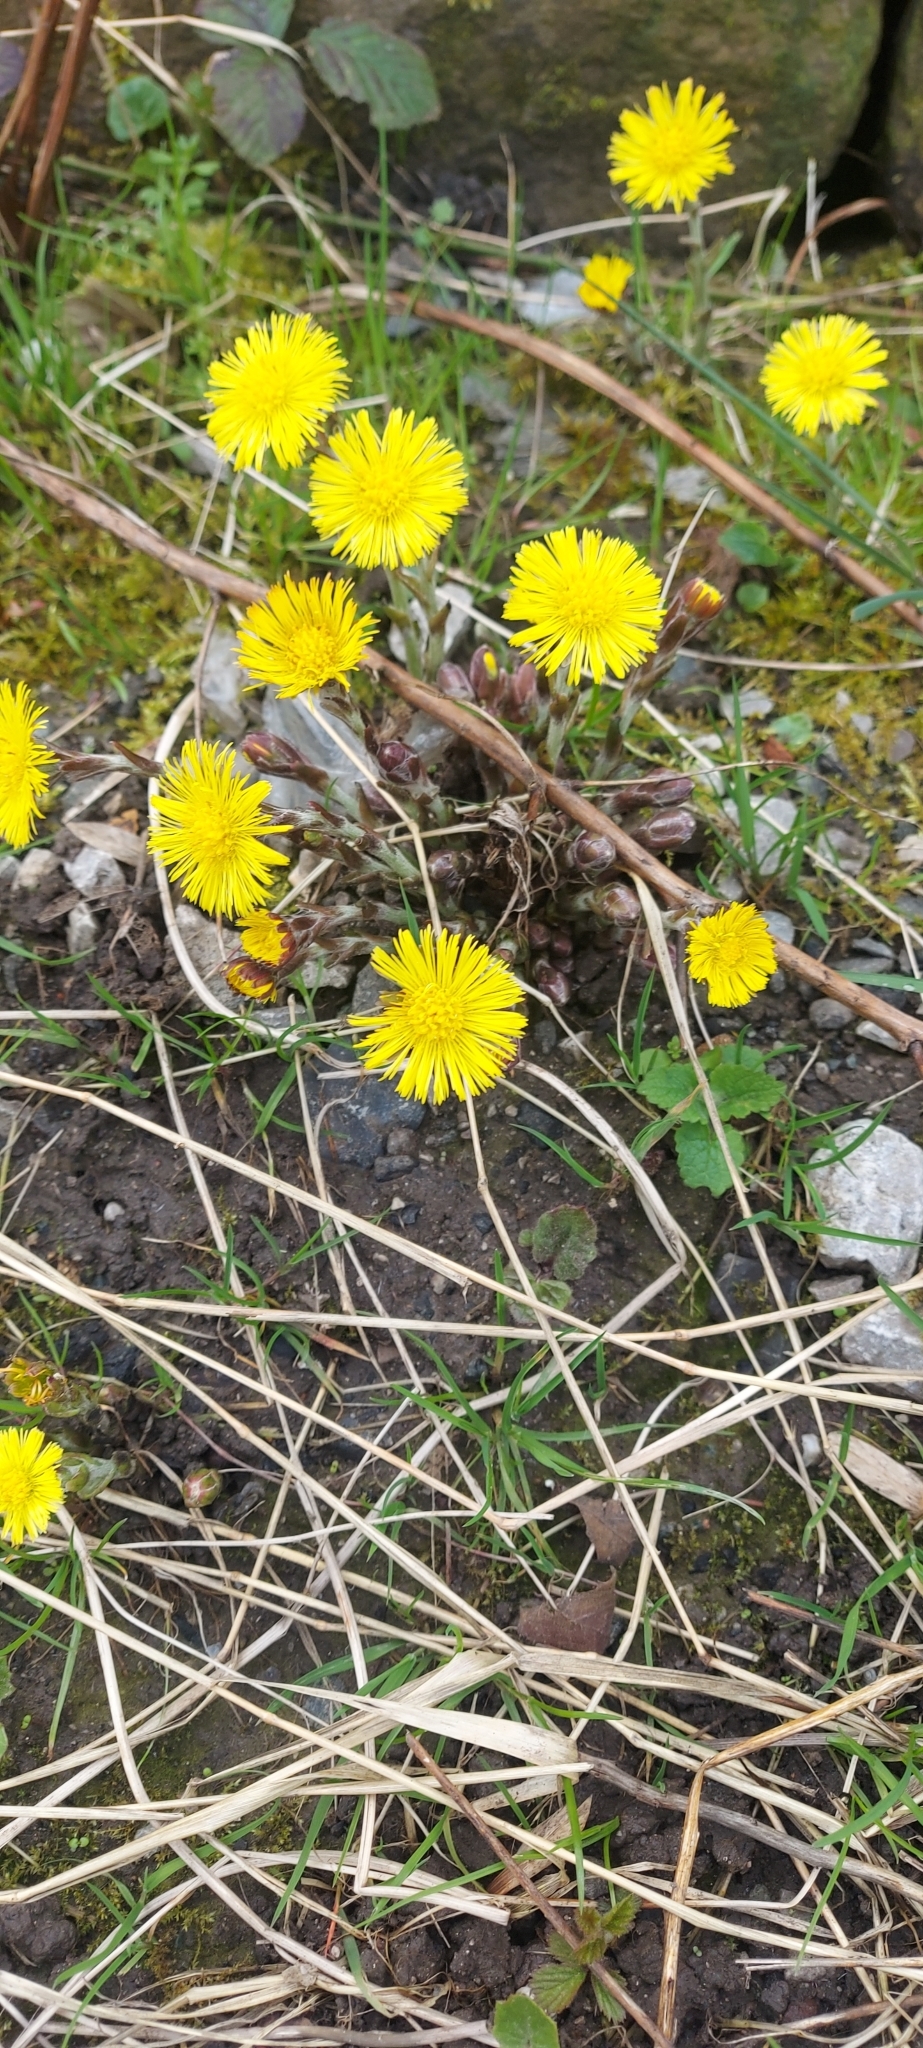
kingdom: Plantae
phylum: Tracheophyta
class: Magnoliopsida
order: Asterales
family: Asteraceae
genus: Tussilago
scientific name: Tussilago farfara
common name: Coltsfoot
